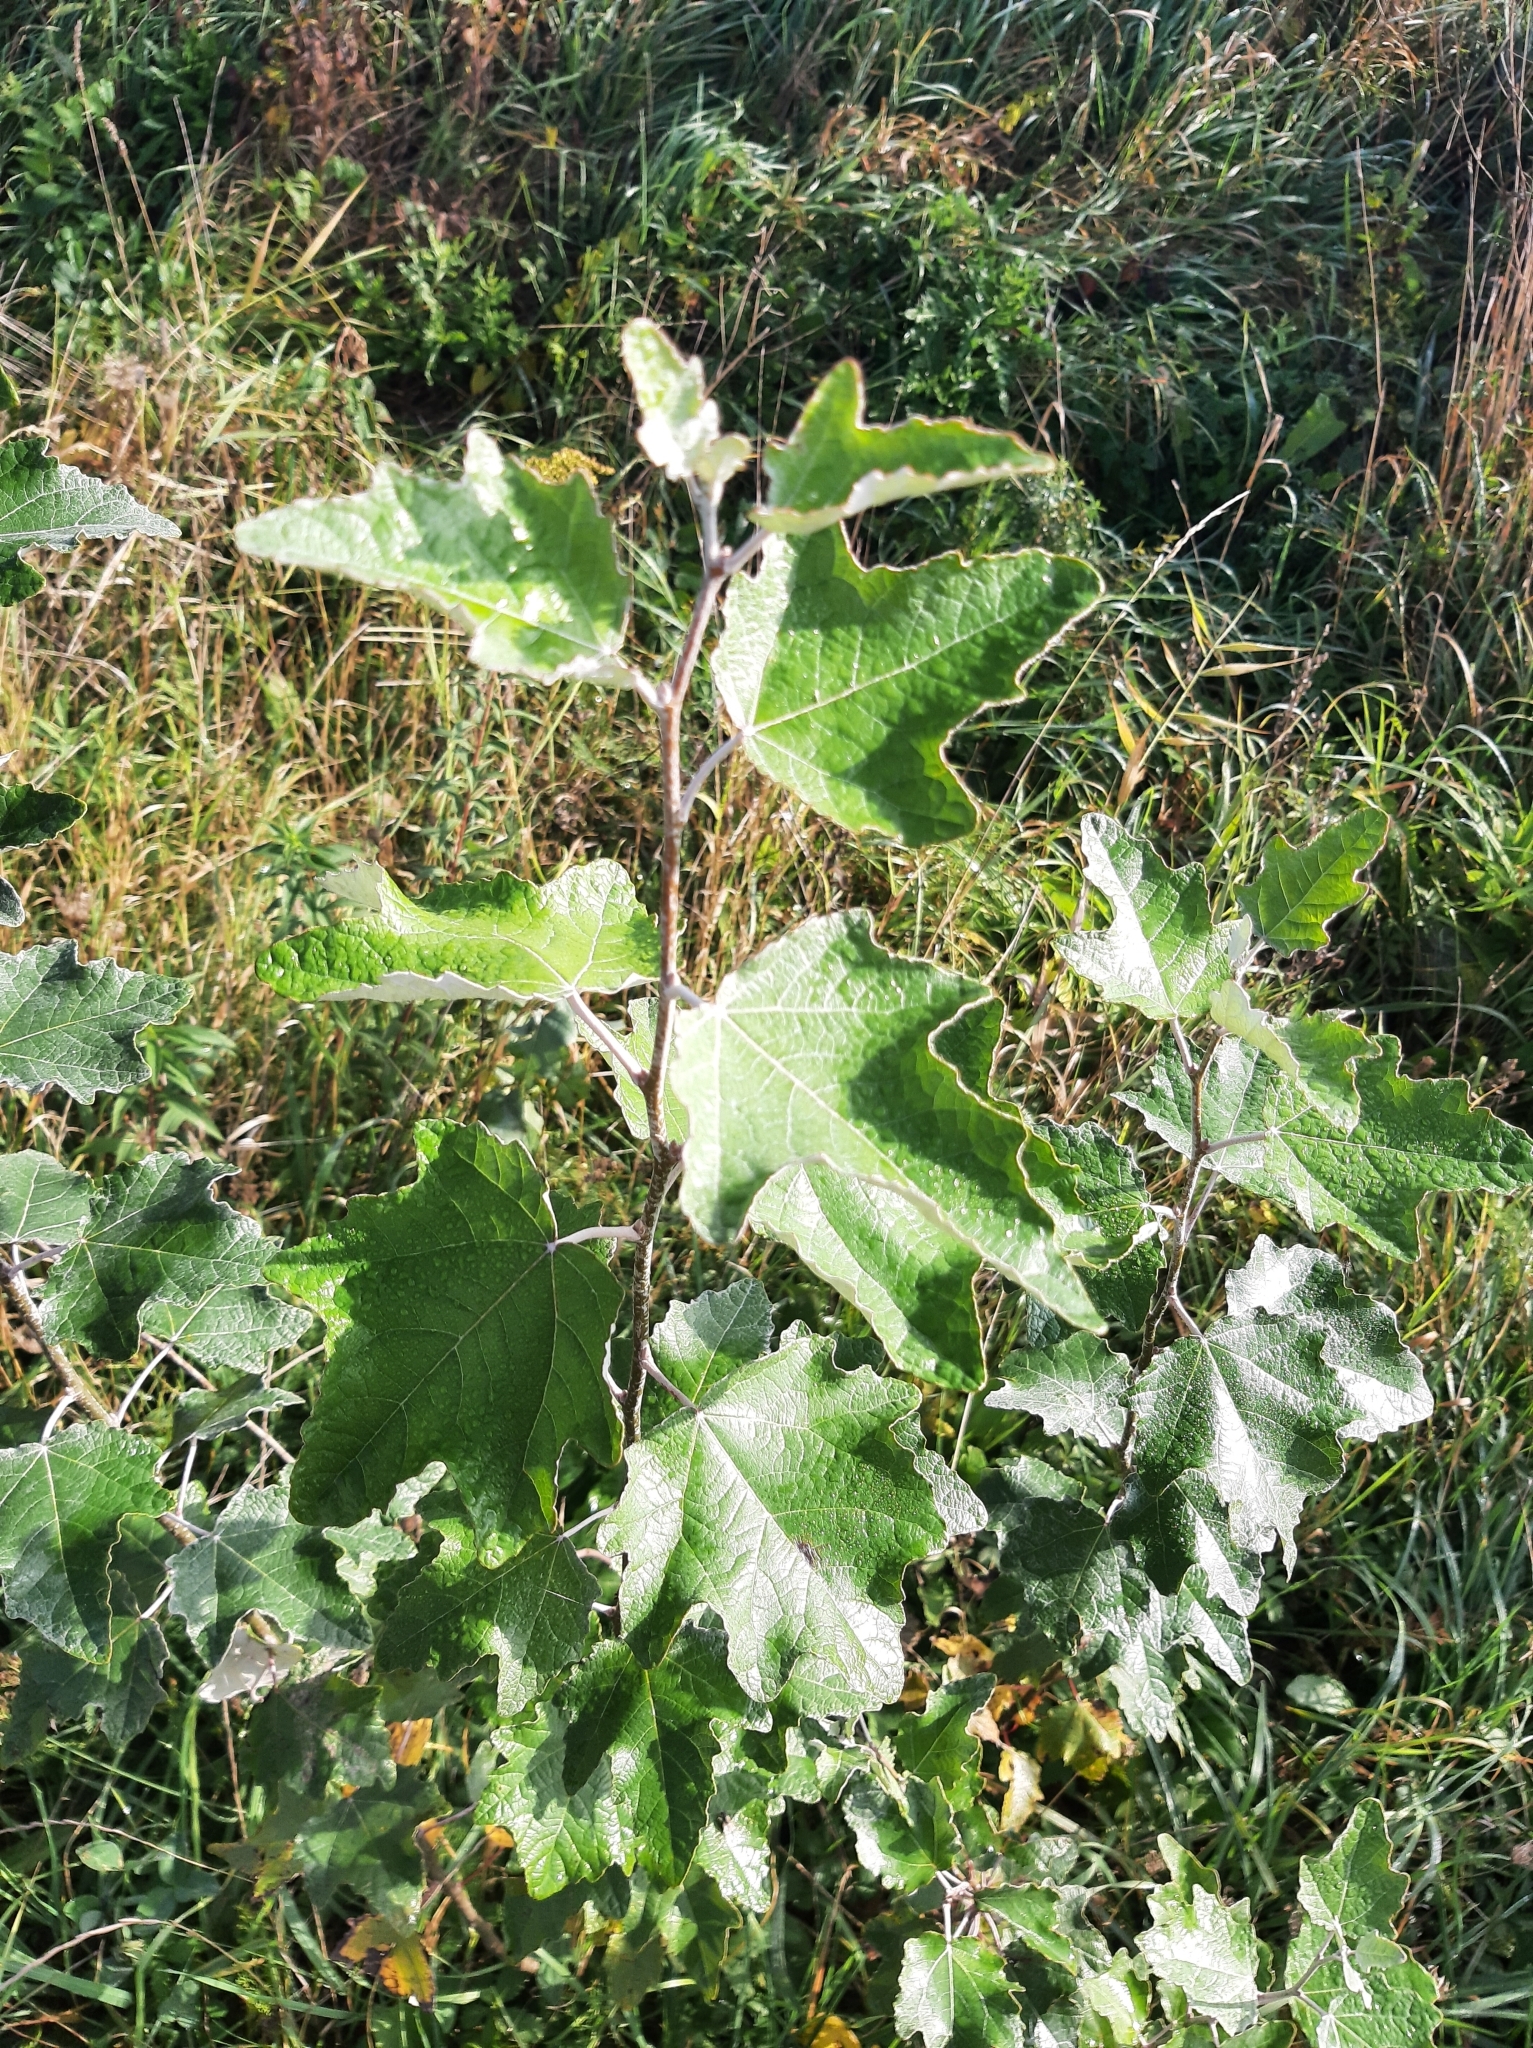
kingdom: Plantae
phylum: Tracheophyta
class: Magnoliopsida
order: Malpighiales
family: Salicaceae
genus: Populus
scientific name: Populus alba
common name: White poplar
